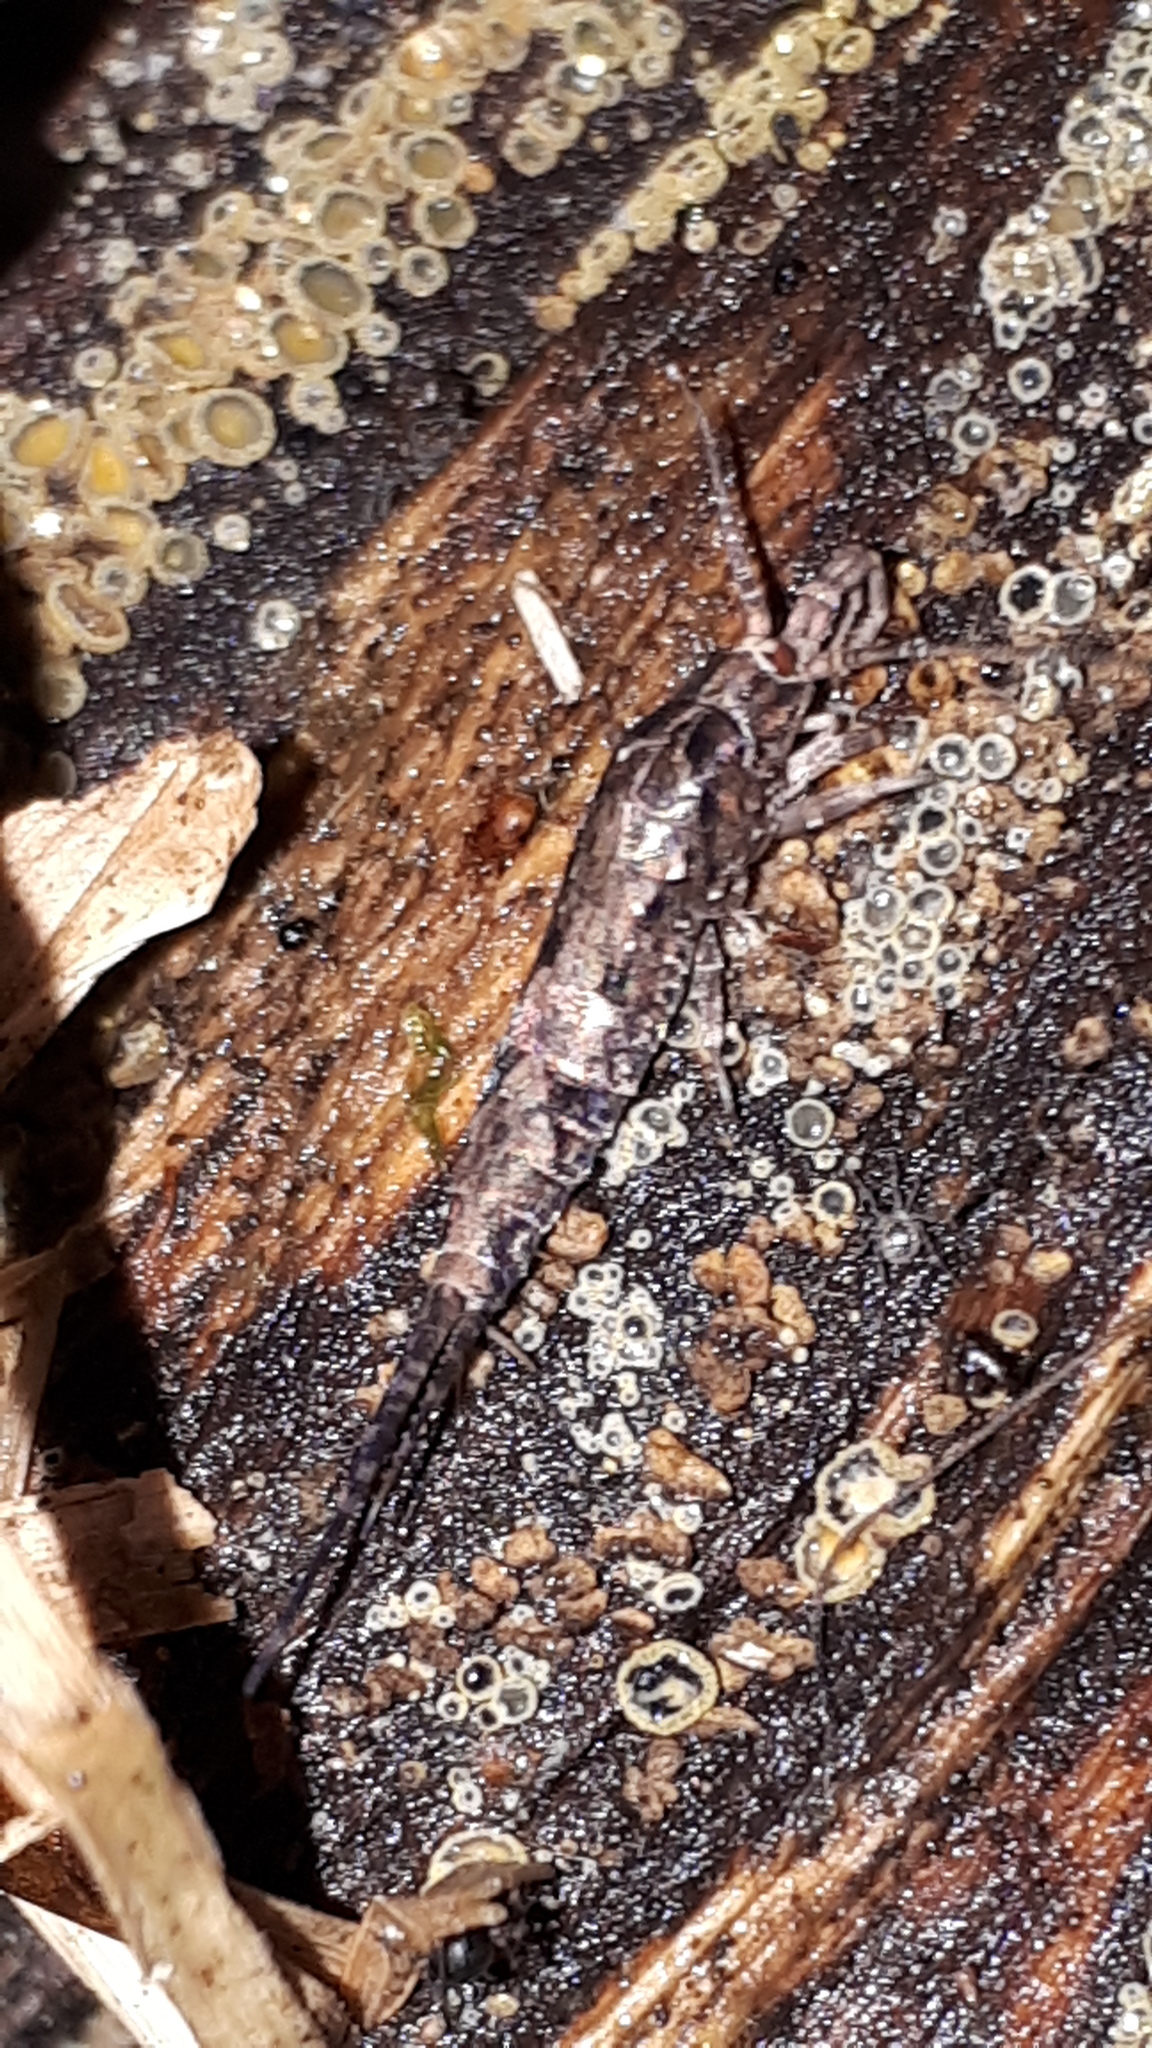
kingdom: Animalia
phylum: Arthropoda
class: Insecta
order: Archaeognatha
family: Machilidae
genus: Lepismachilis
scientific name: Lepismachilis rozsypali
